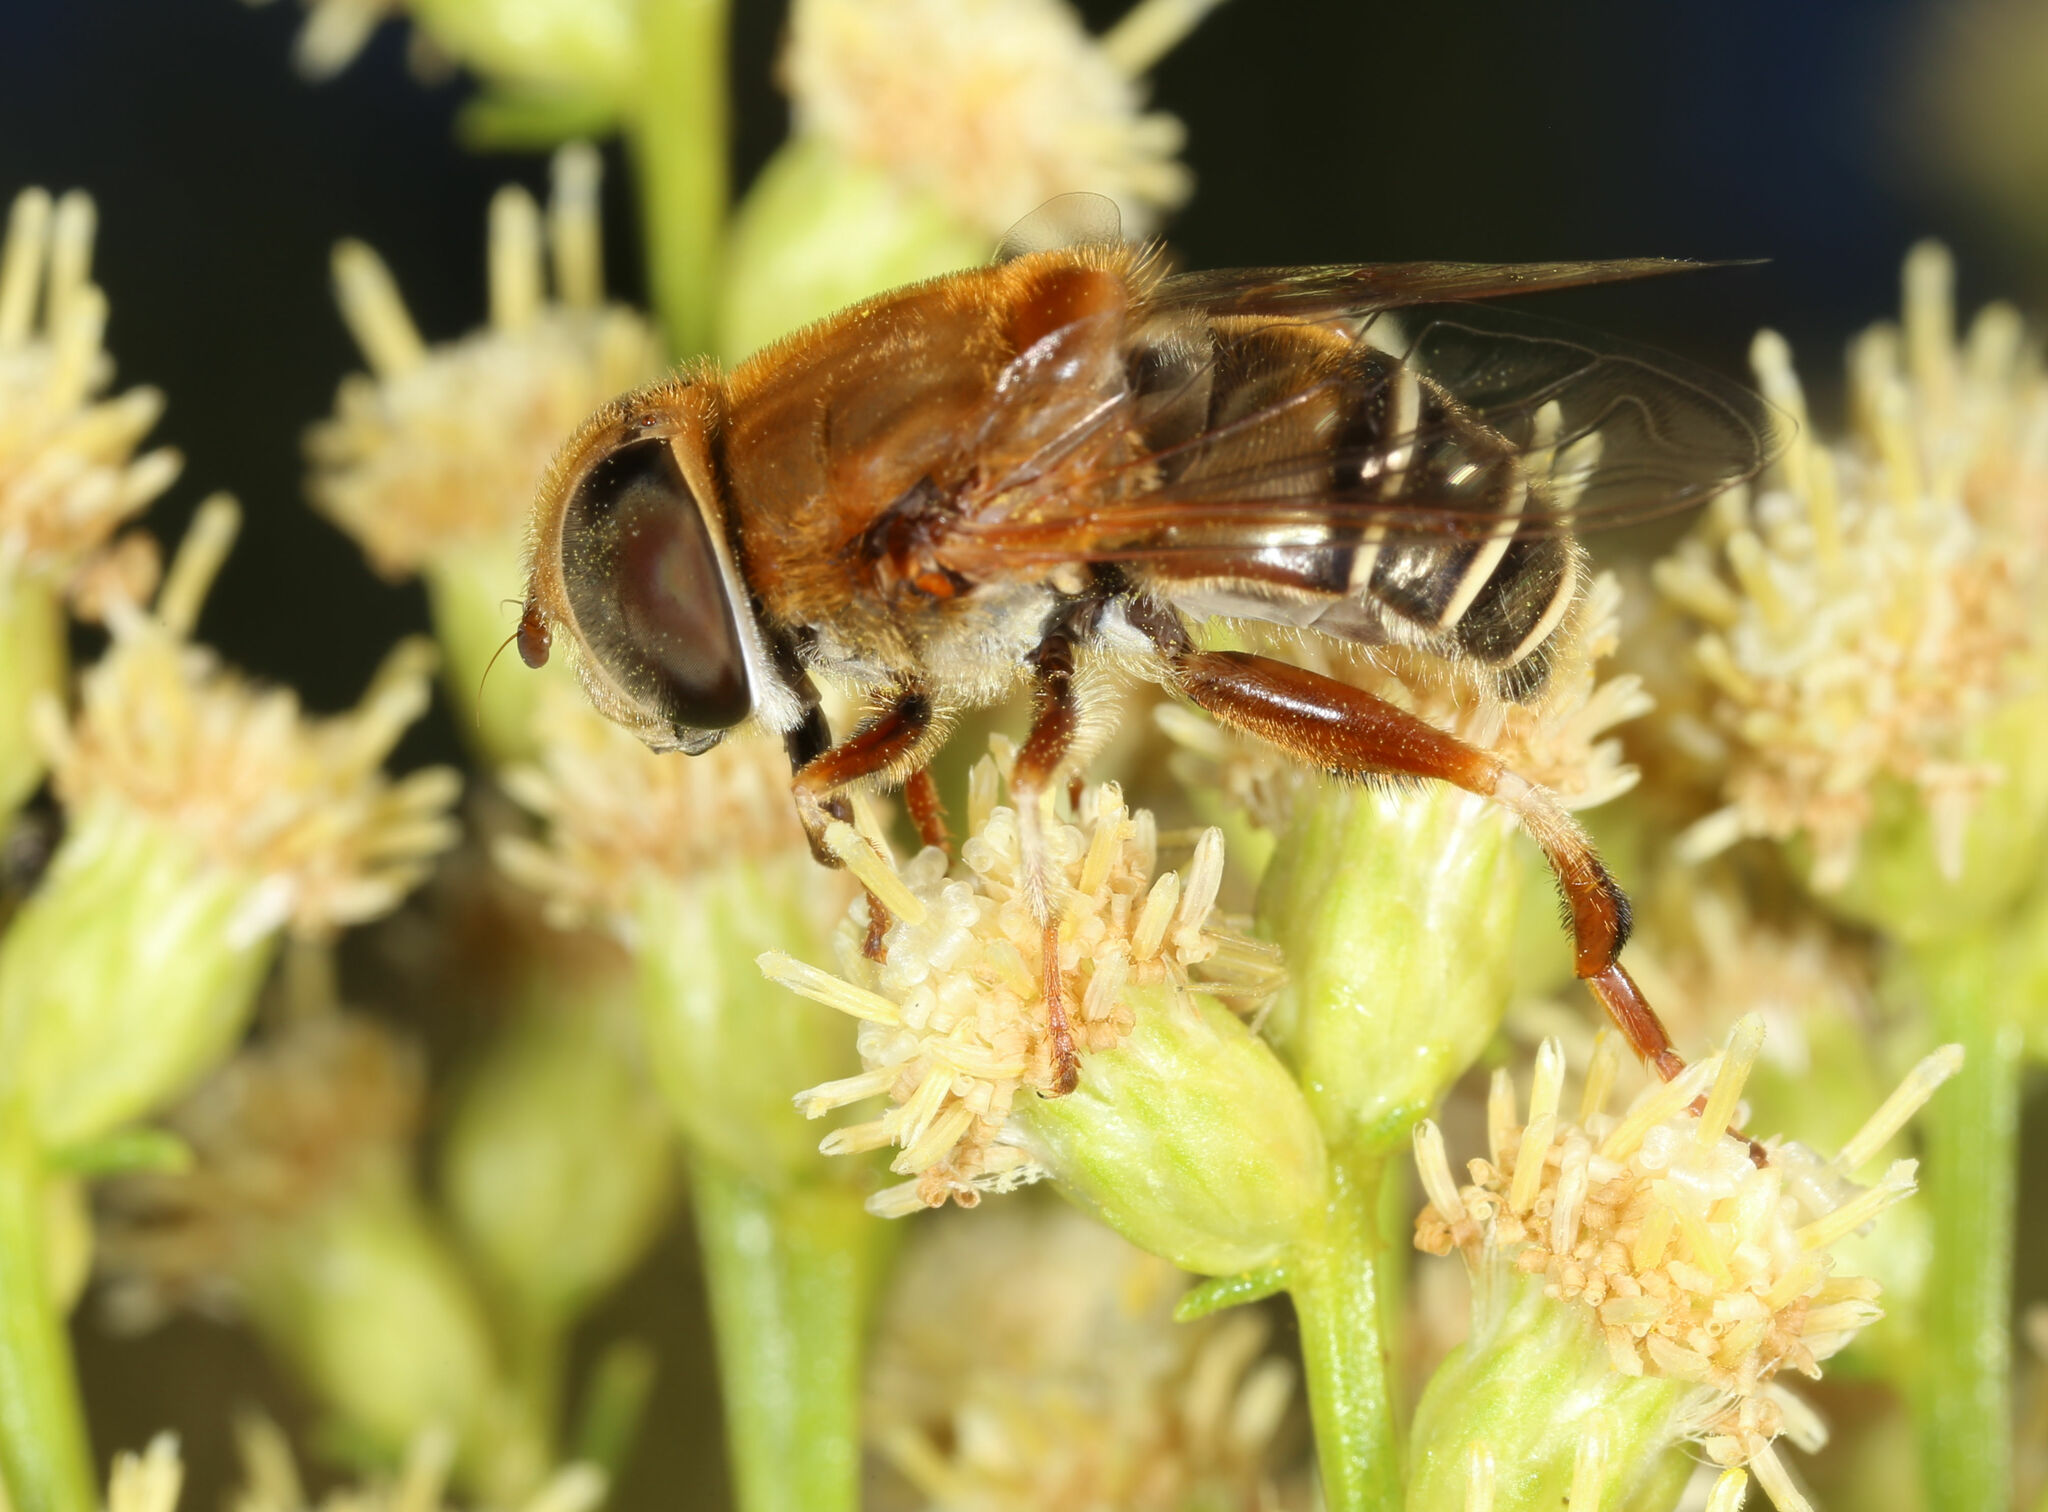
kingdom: Animalia
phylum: Arthropoda
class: Insecta
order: Diptera
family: Syrphidae
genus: Palpada
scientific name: Palpada mexicana
